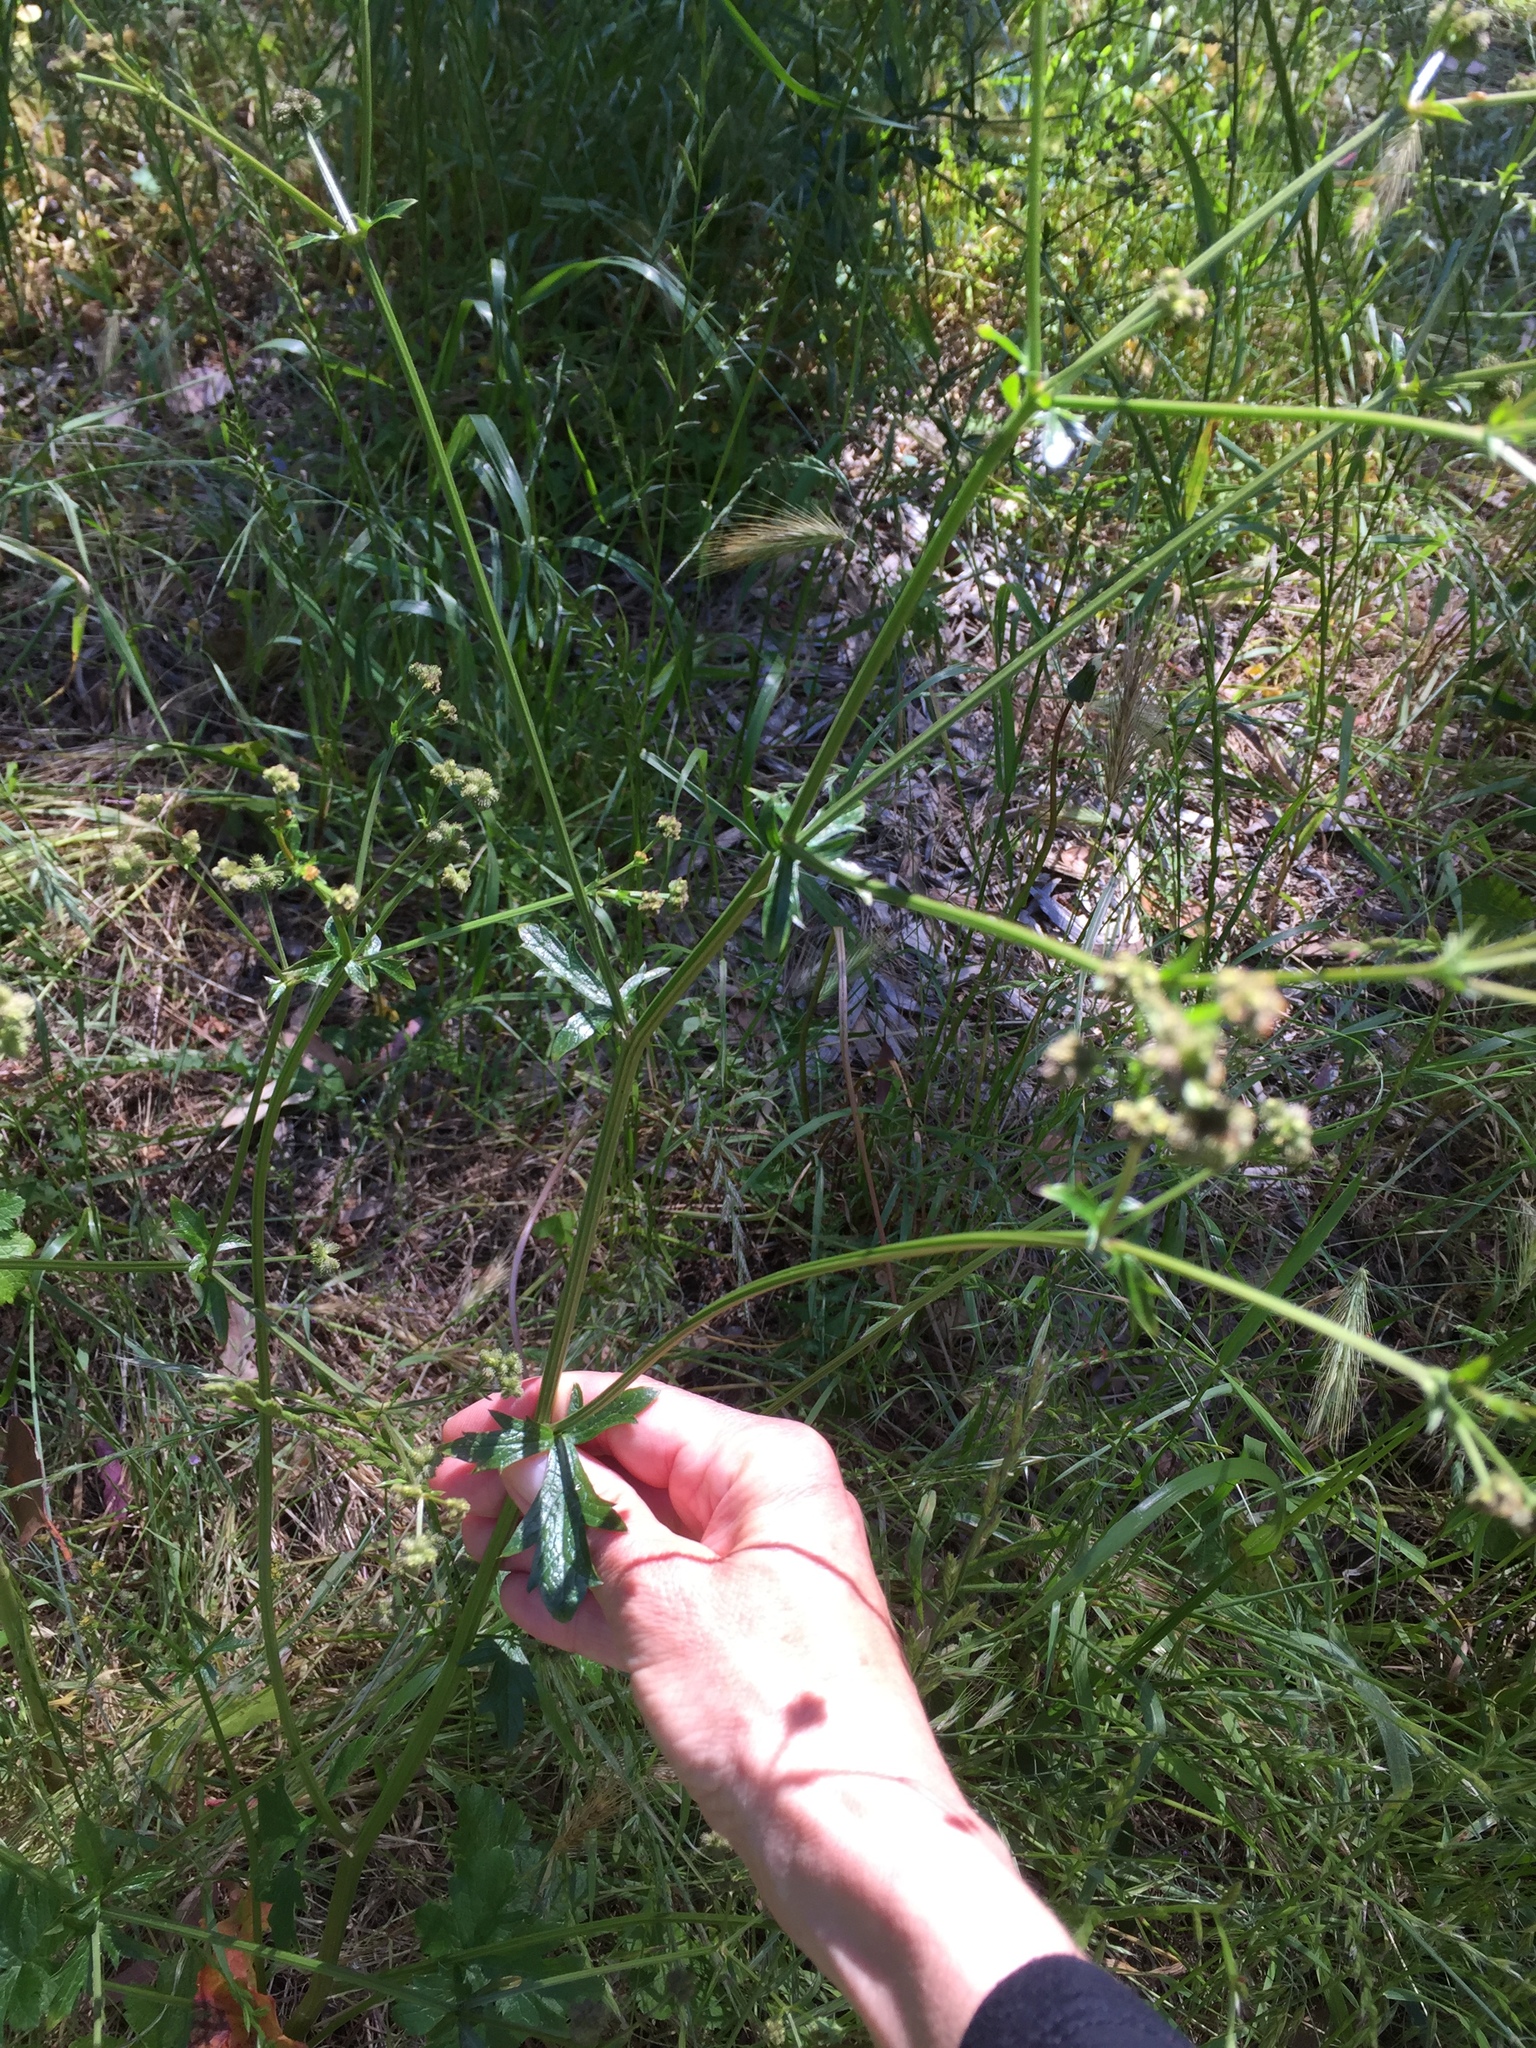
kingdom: Plantae
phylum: Tracheophyta
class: Magnoliopsida
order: Apiales
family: Apiaceae
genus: Sanicula
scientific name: Sanicula crassicaulis
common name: Western snakeroot
